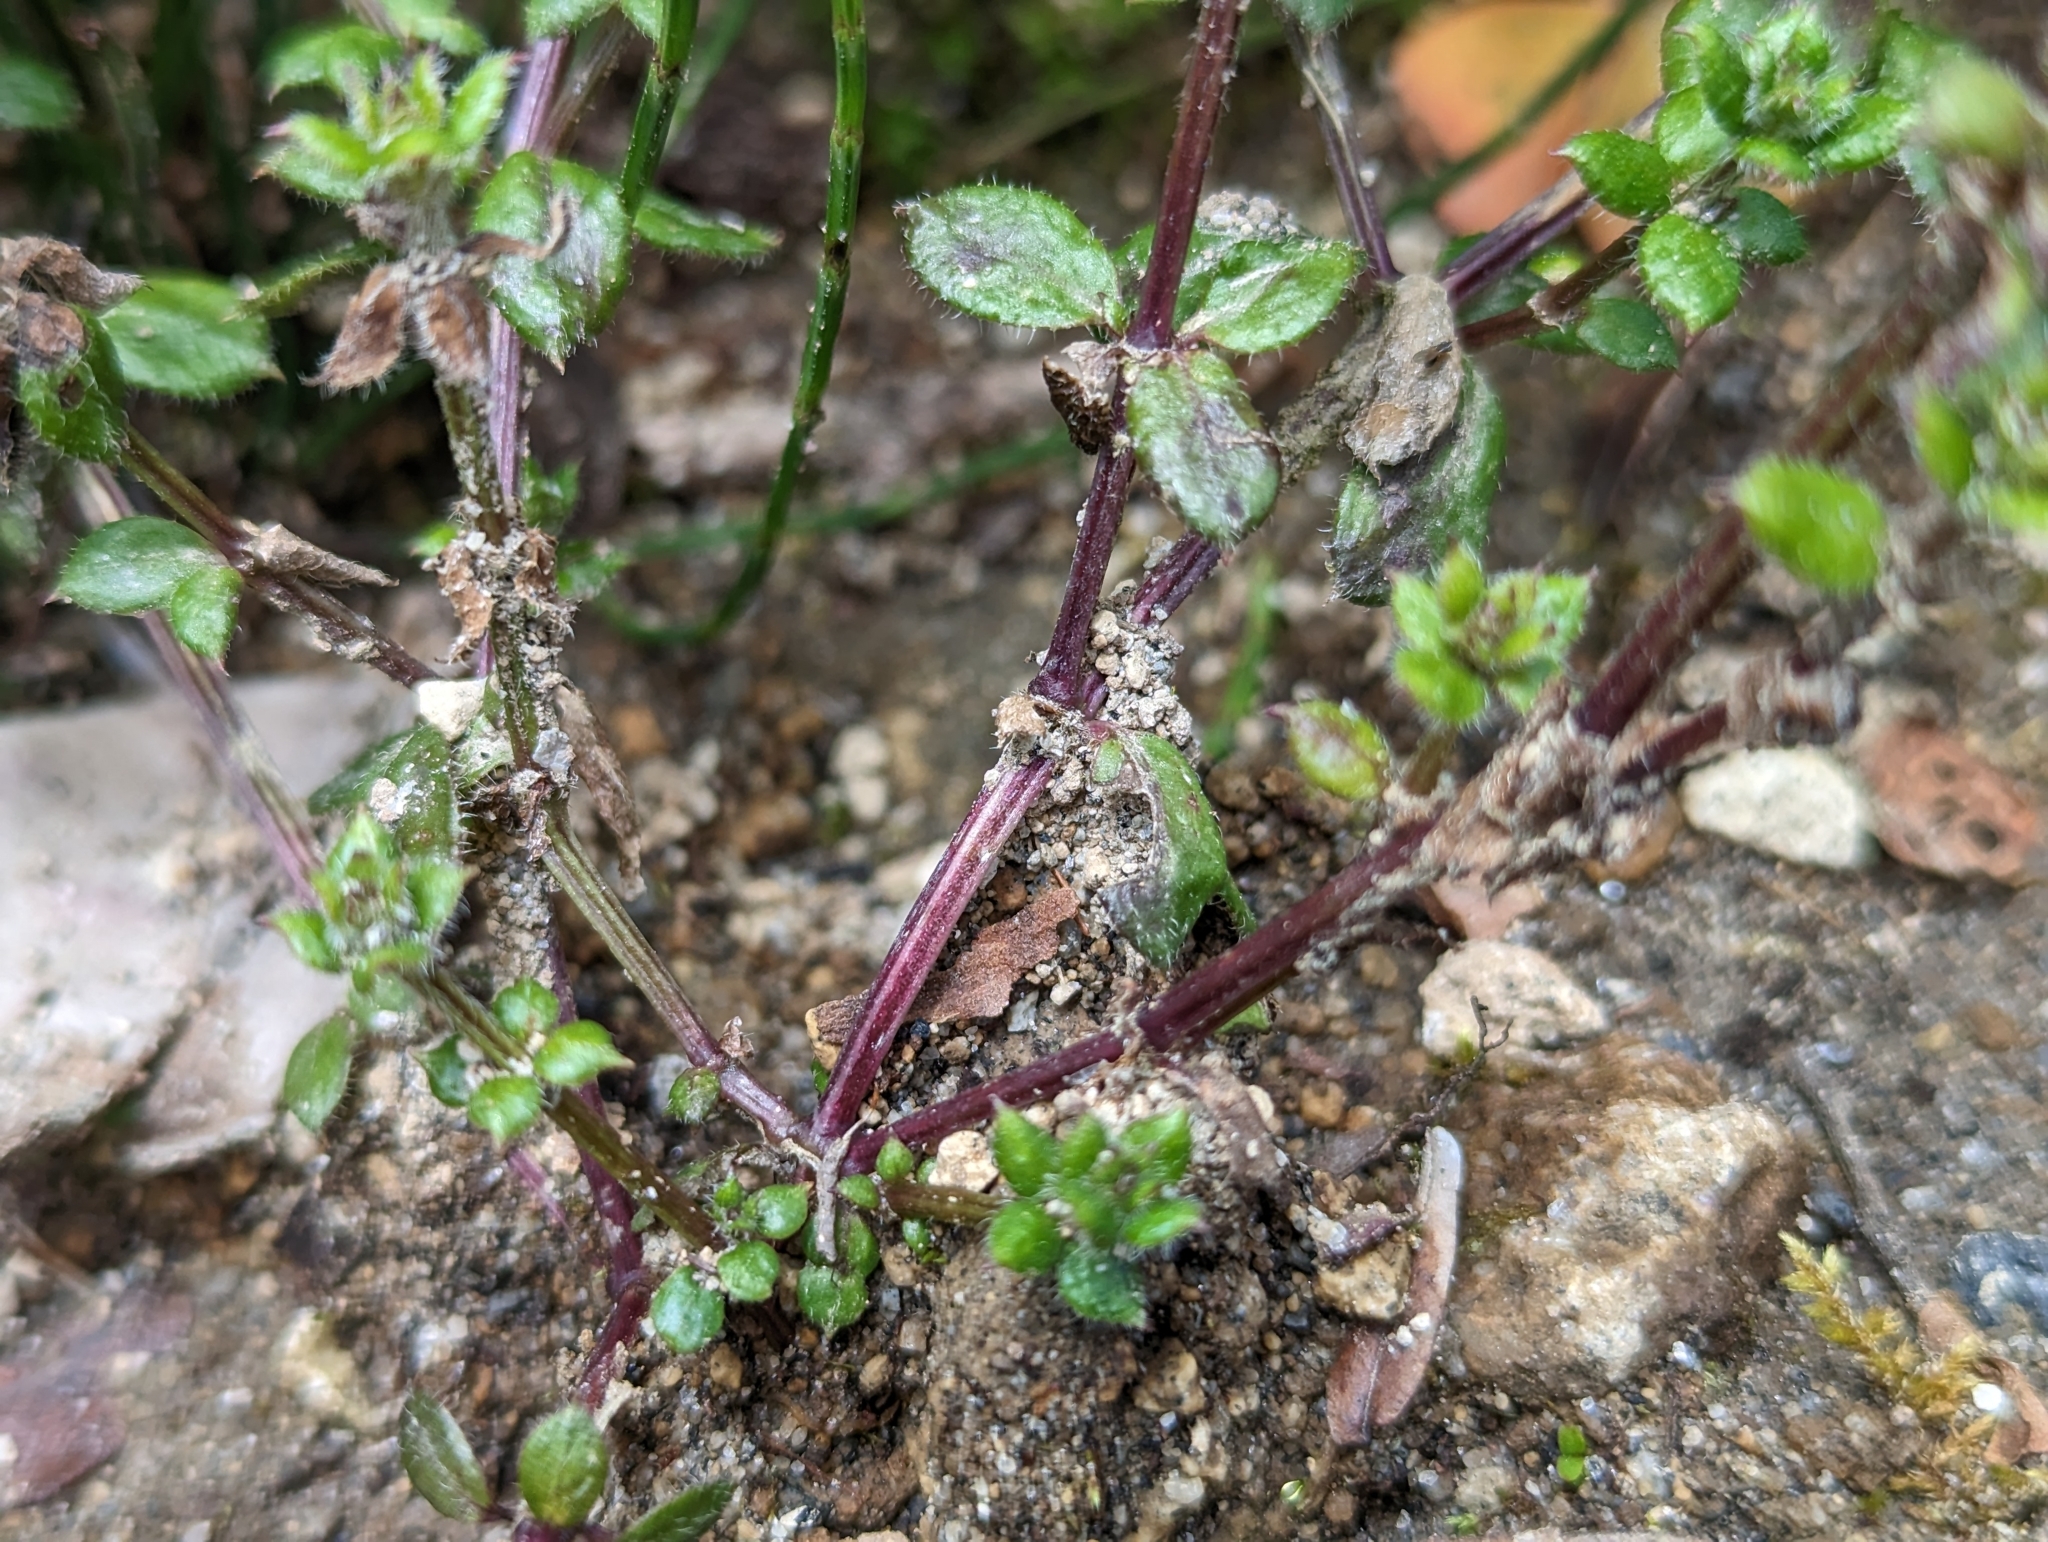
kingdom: Plantae
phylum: Tracheophyta
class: Magnoliopsida
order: Gentianales
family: Rubiaceae
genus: Galium
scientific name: Galium hypocarpium
